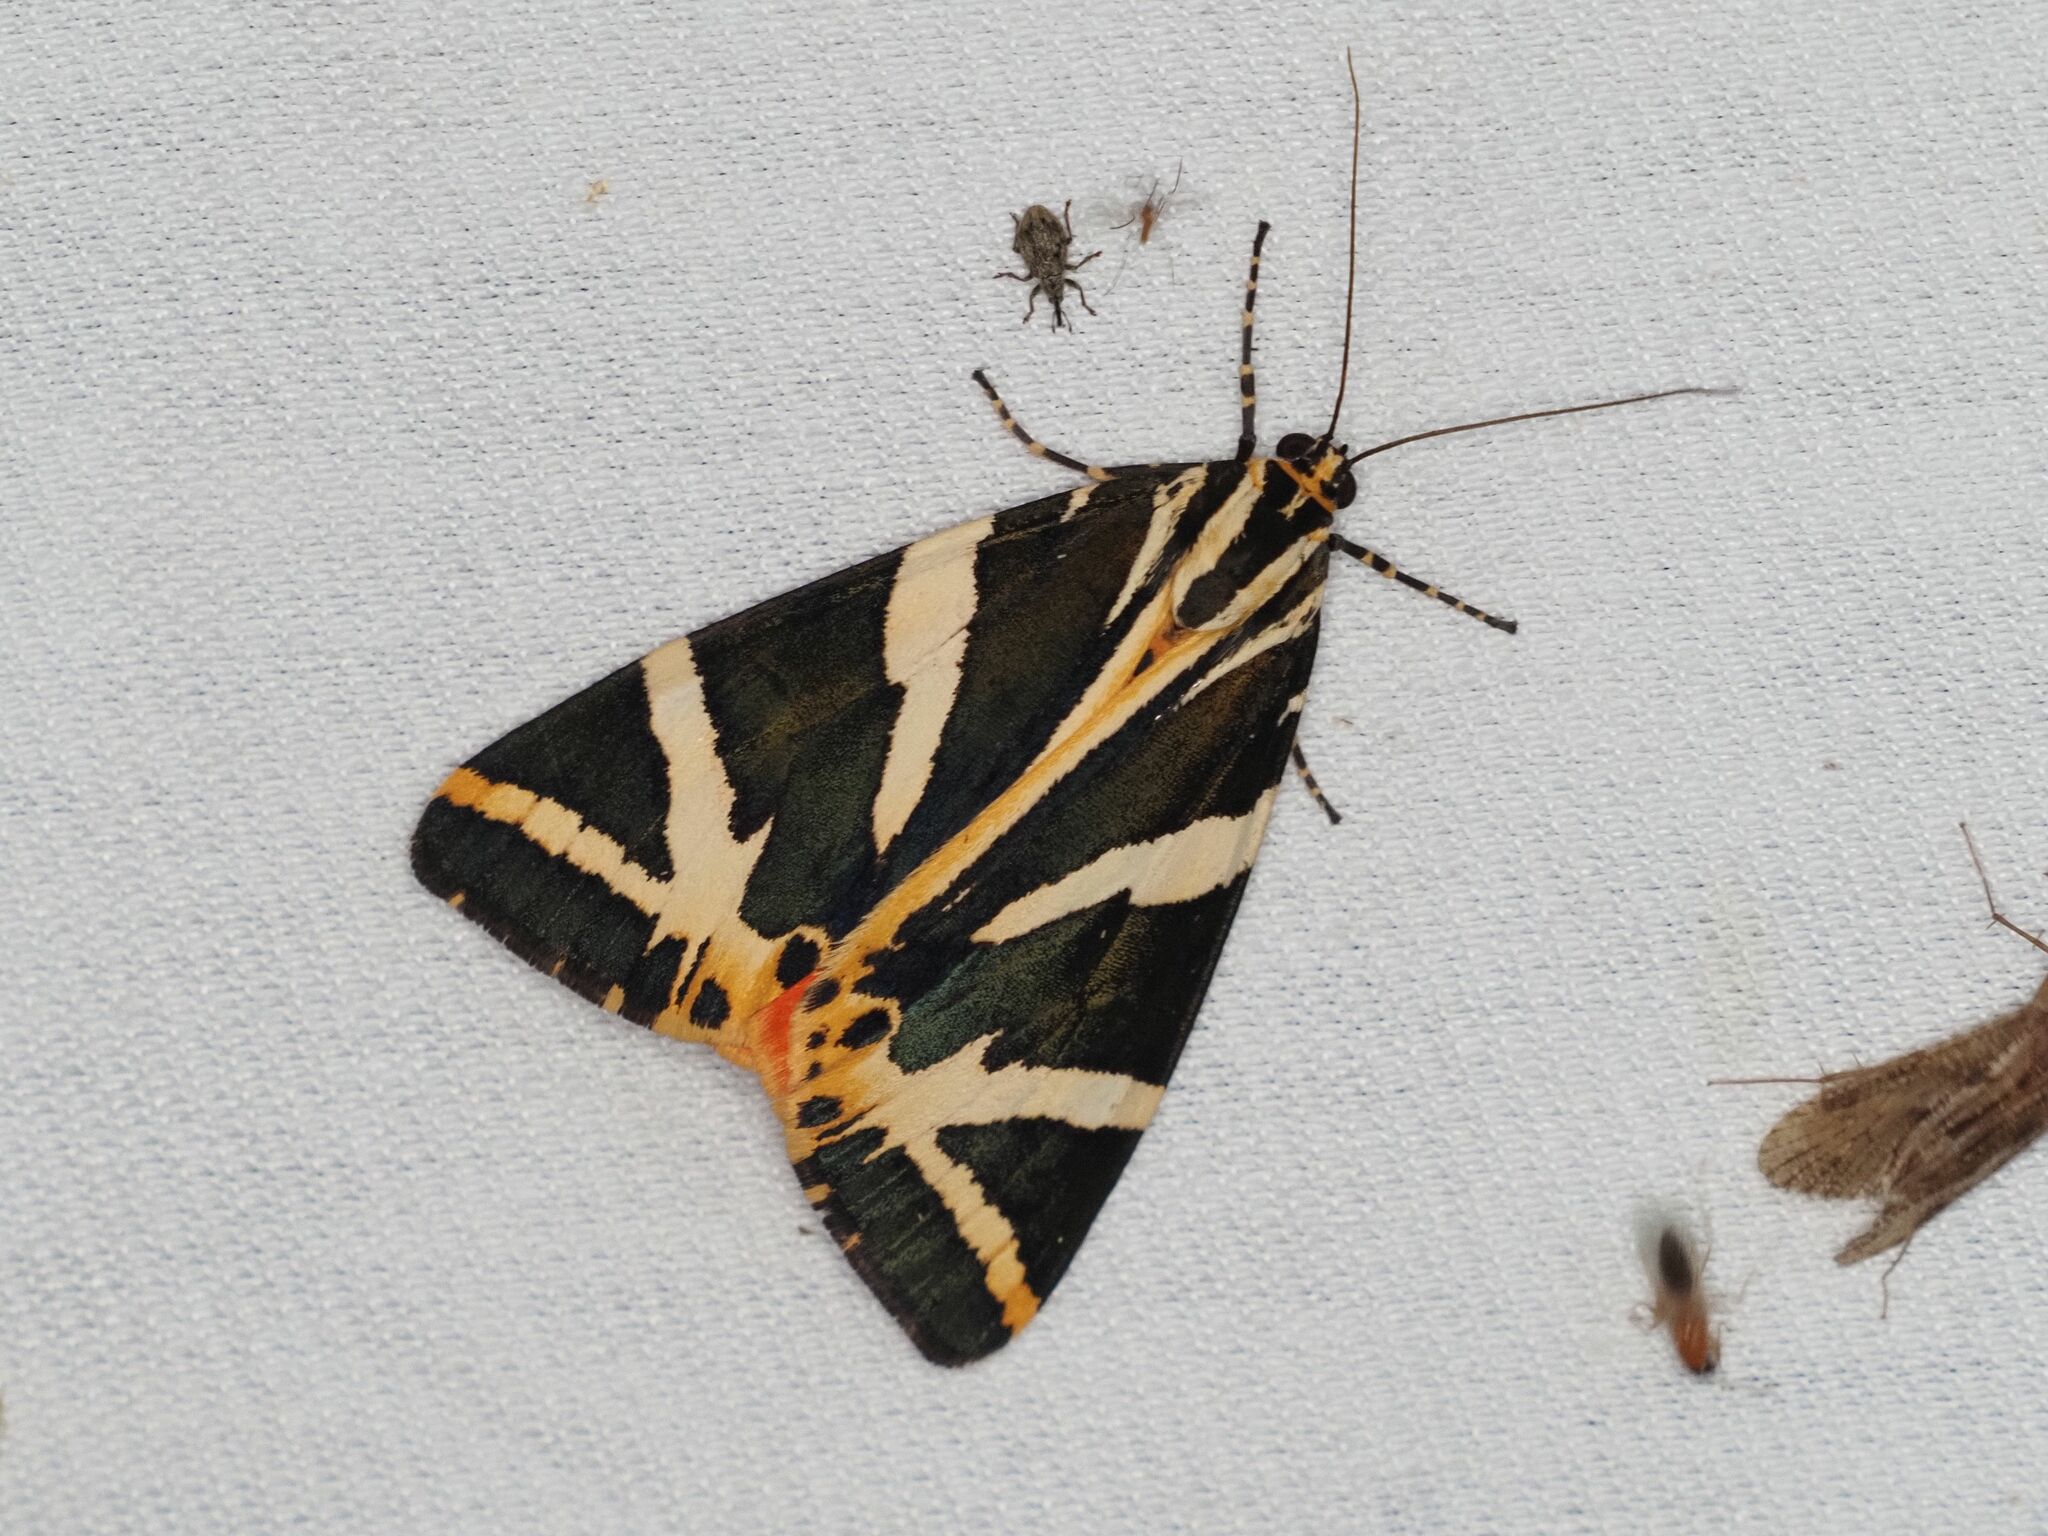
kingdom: Animalia
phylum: Arthropoda
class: Insecta
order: Lepidoptera
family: Erebidae
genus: Euplagia
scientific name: Euplagia quadripunctaria
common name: Jersey tiger
